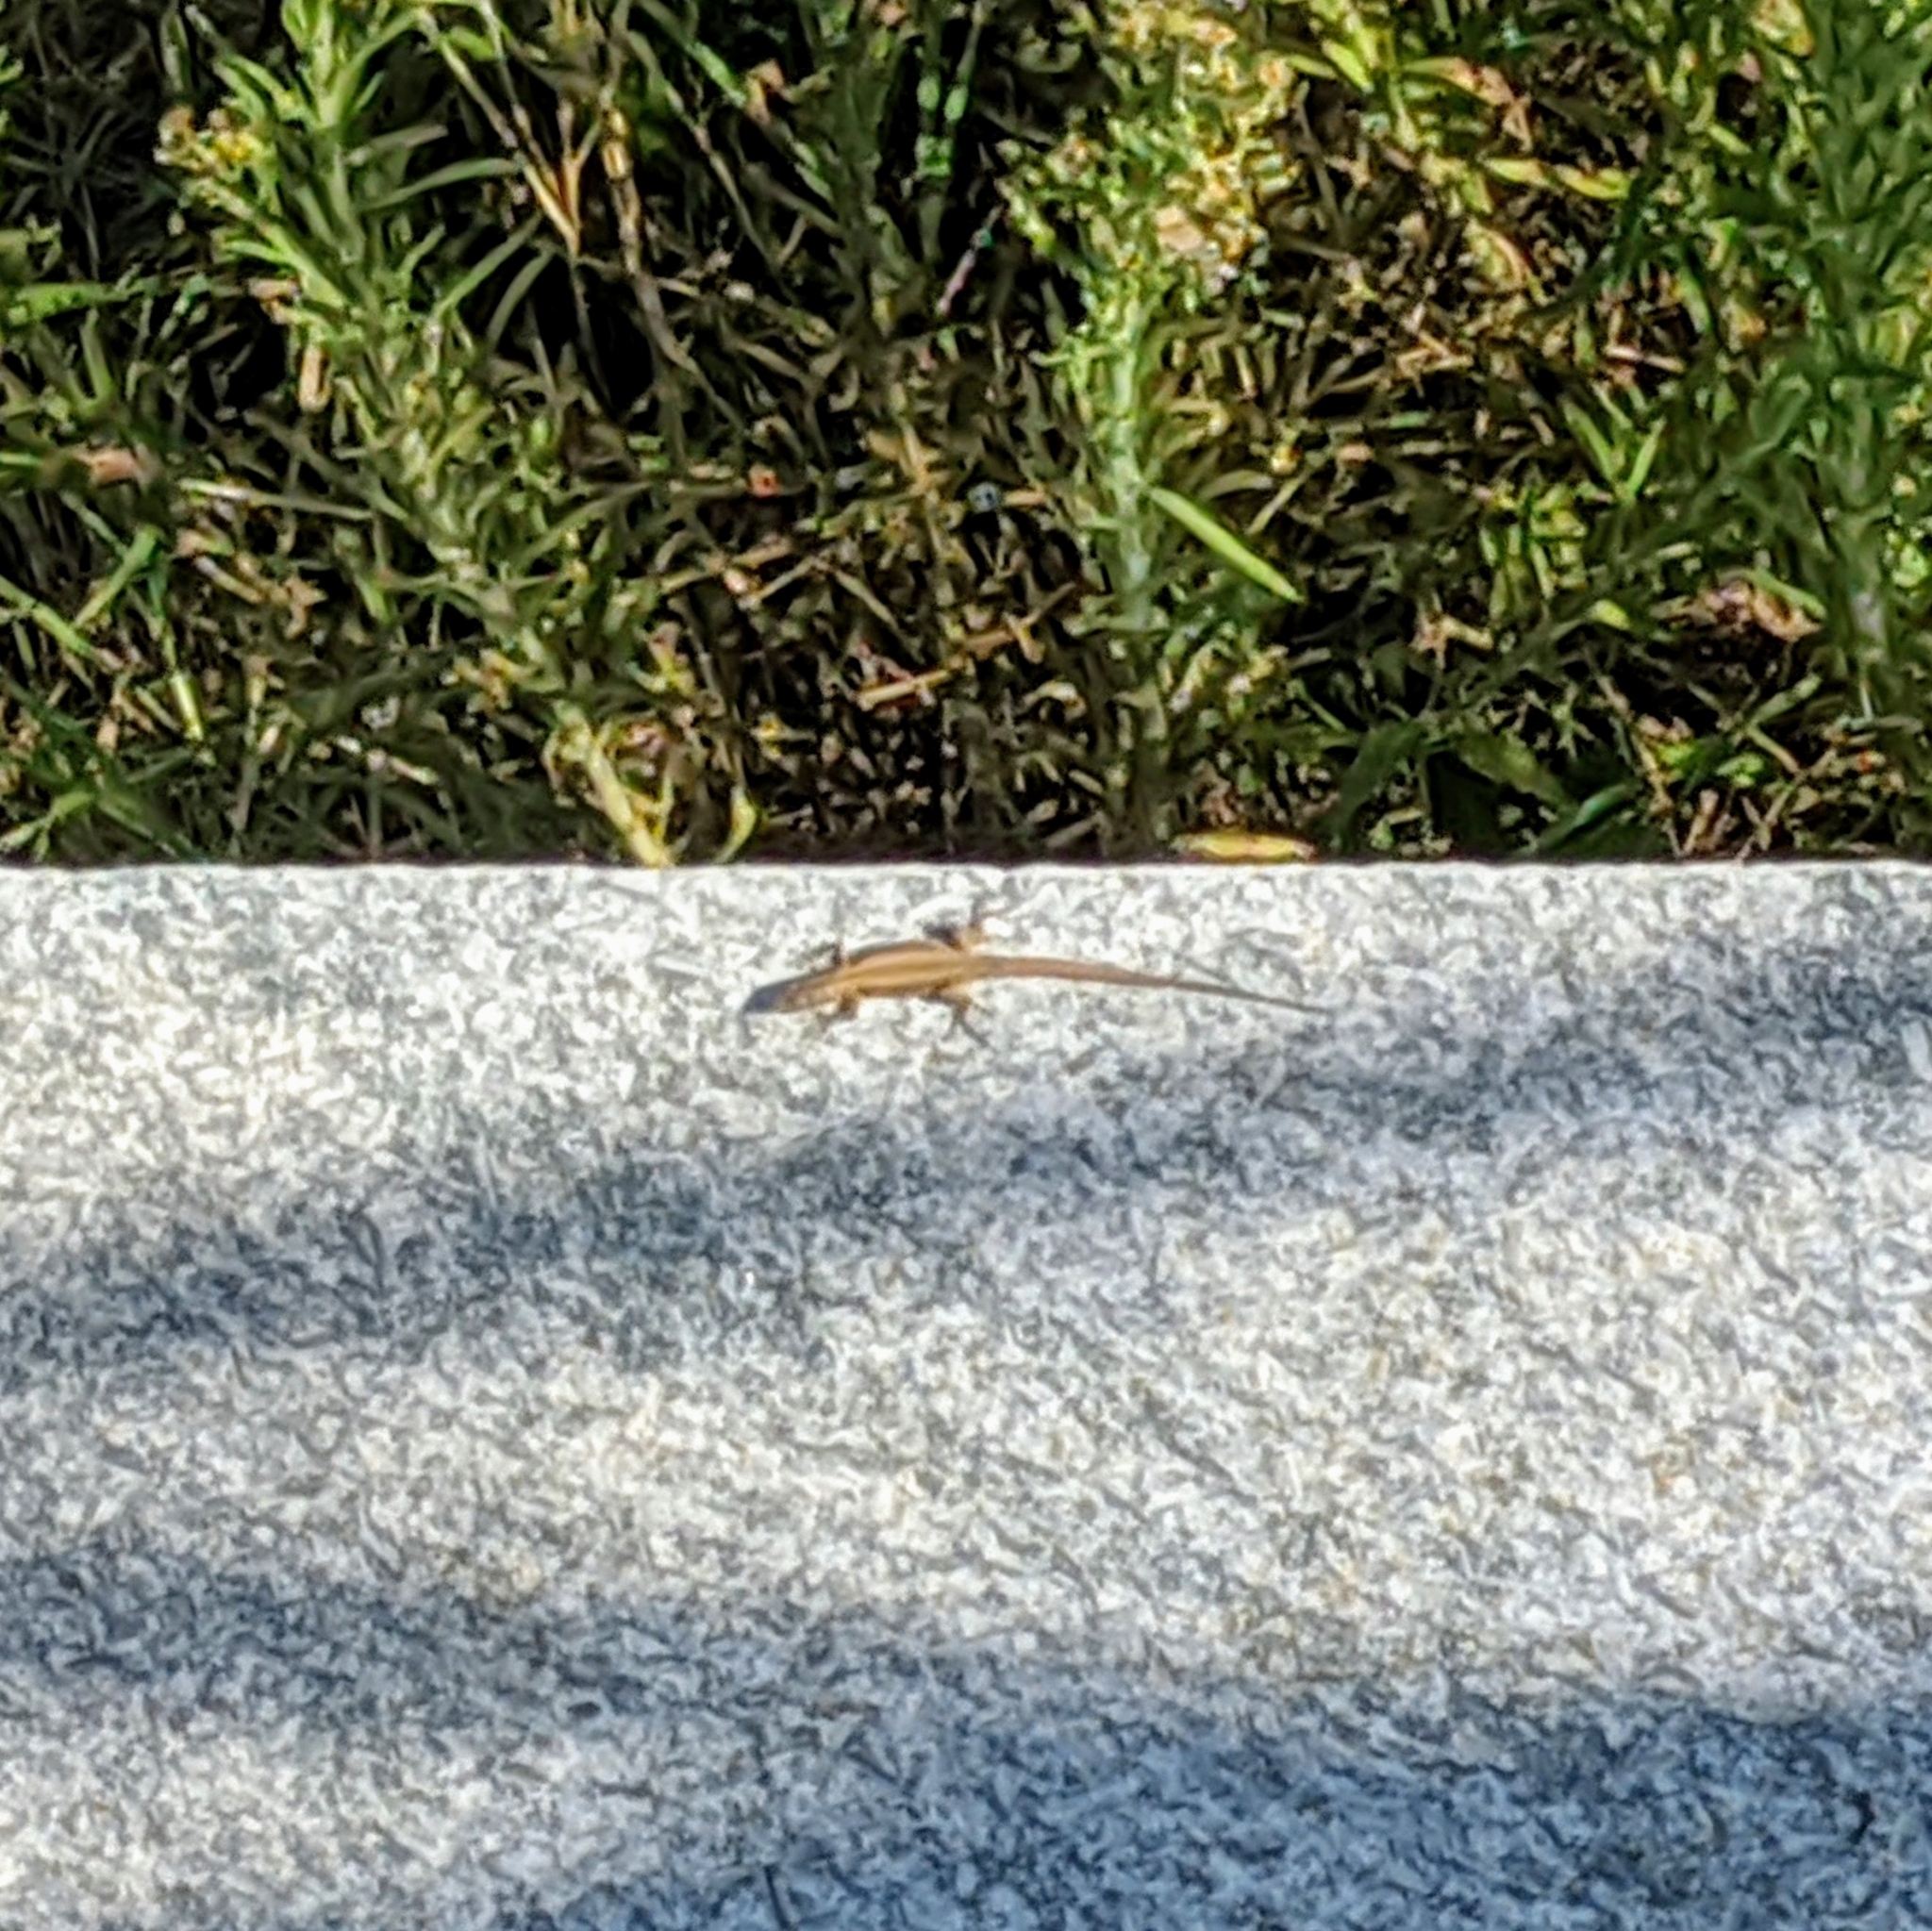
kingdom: Animalia
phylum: Chordata
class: Squamata
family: Lacertidae
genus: Podarcis
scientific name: Podarcis muralis
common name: Common wall lizard
